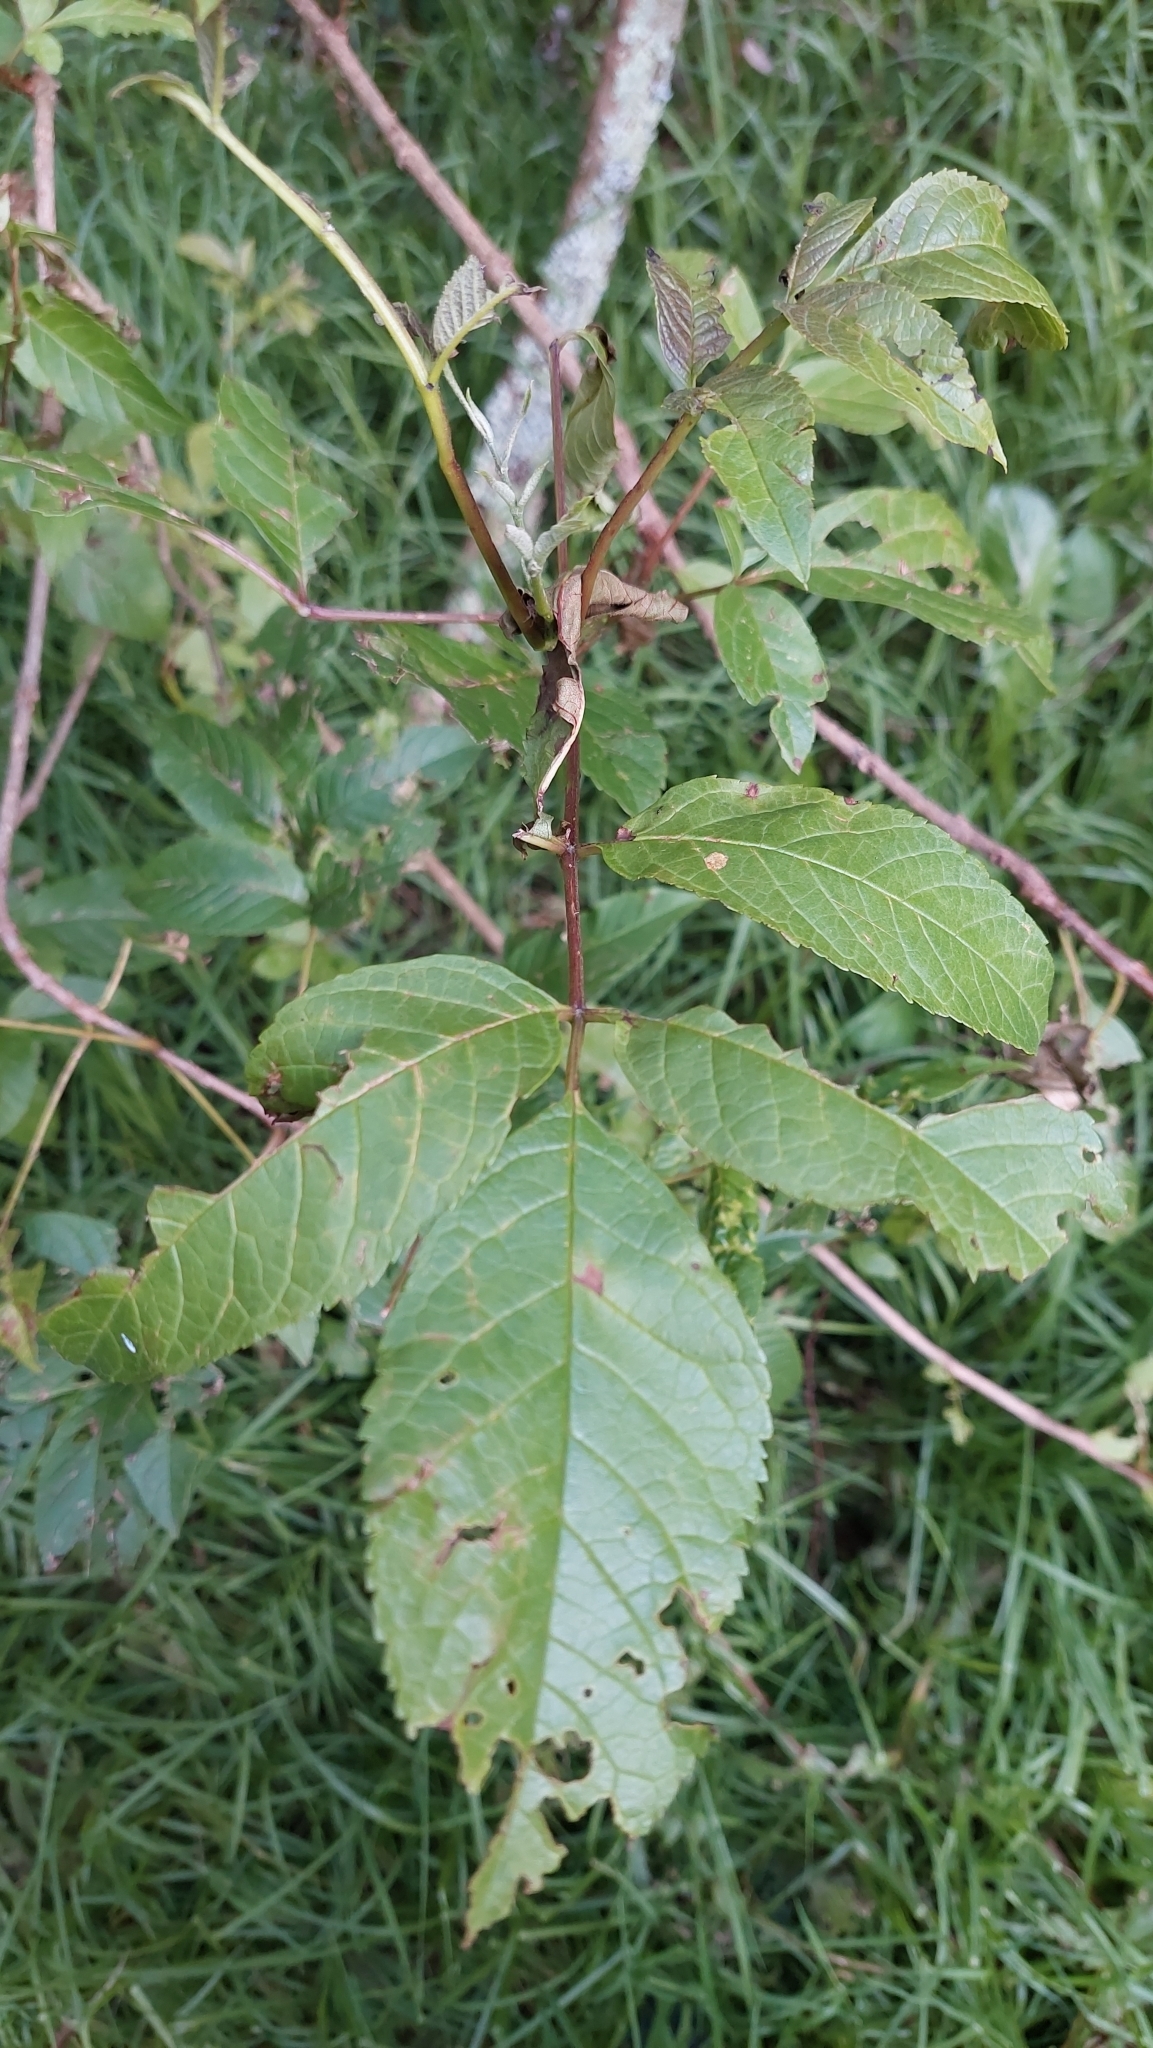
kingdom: Plantae
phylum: Tracheophyta
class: Magnoliopsida
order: Lamiales
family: Oleaceae
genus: Fraxinus
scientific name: Fraxinus uhdei
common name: Shamel ash
